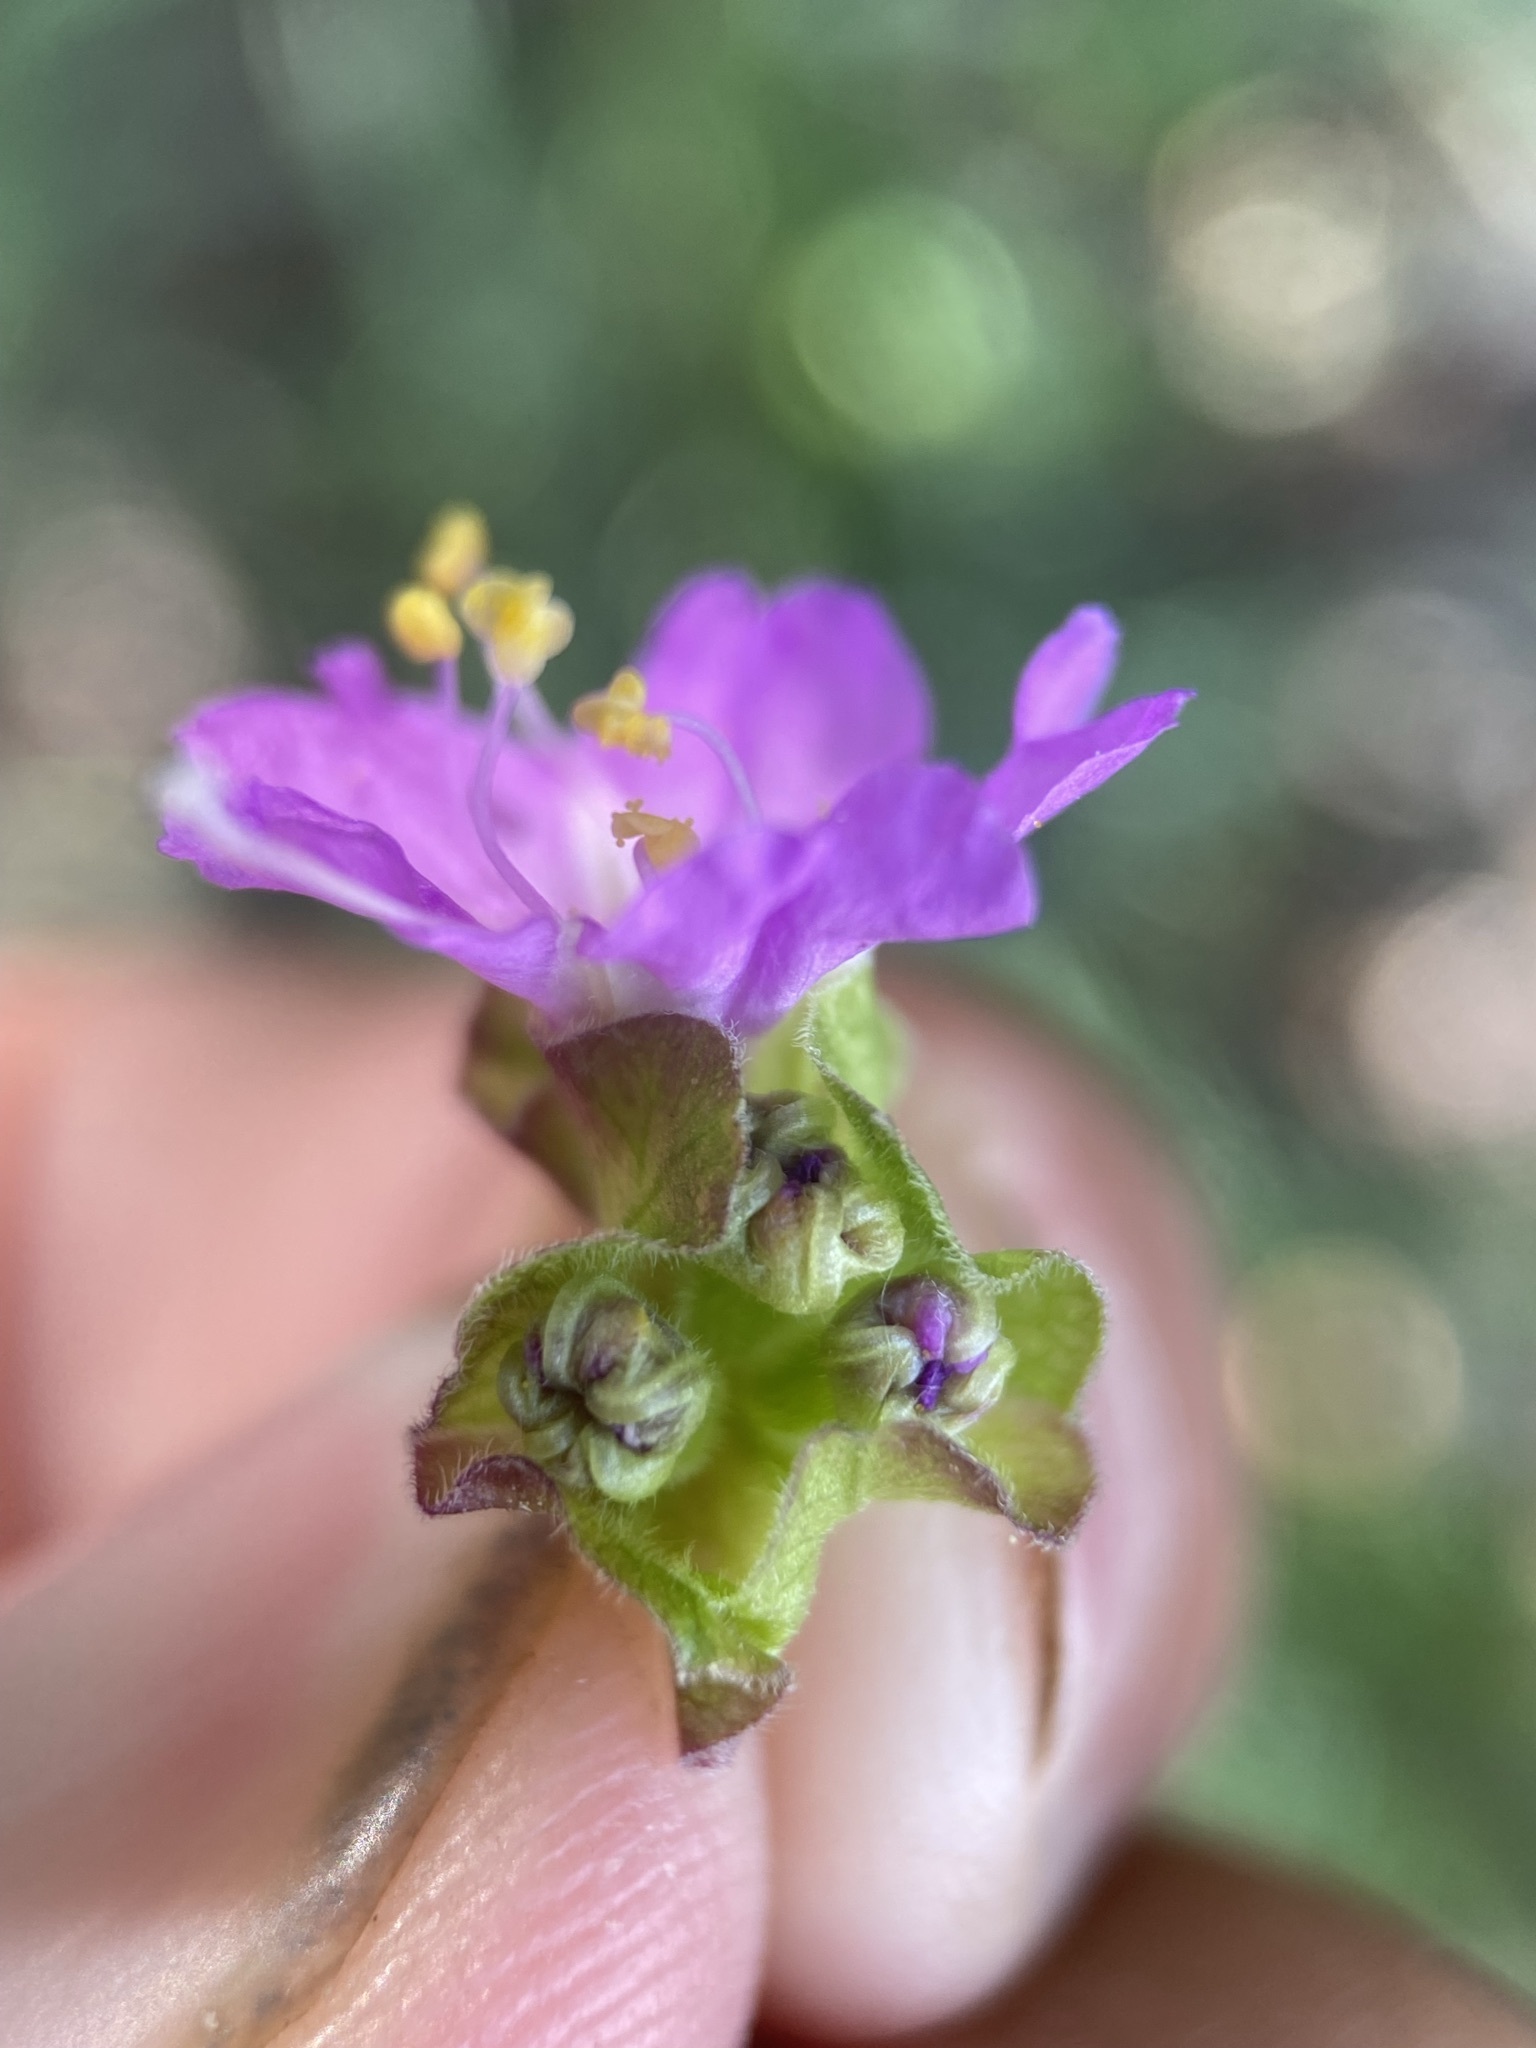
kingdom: Plantae
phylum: Tracheophyta
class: Magnoliopsida
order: Caryophyllales
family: Nyctaginaceae
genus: Mirabilis
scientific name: Mirabilis nyctaginea
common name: Umbrella wort
